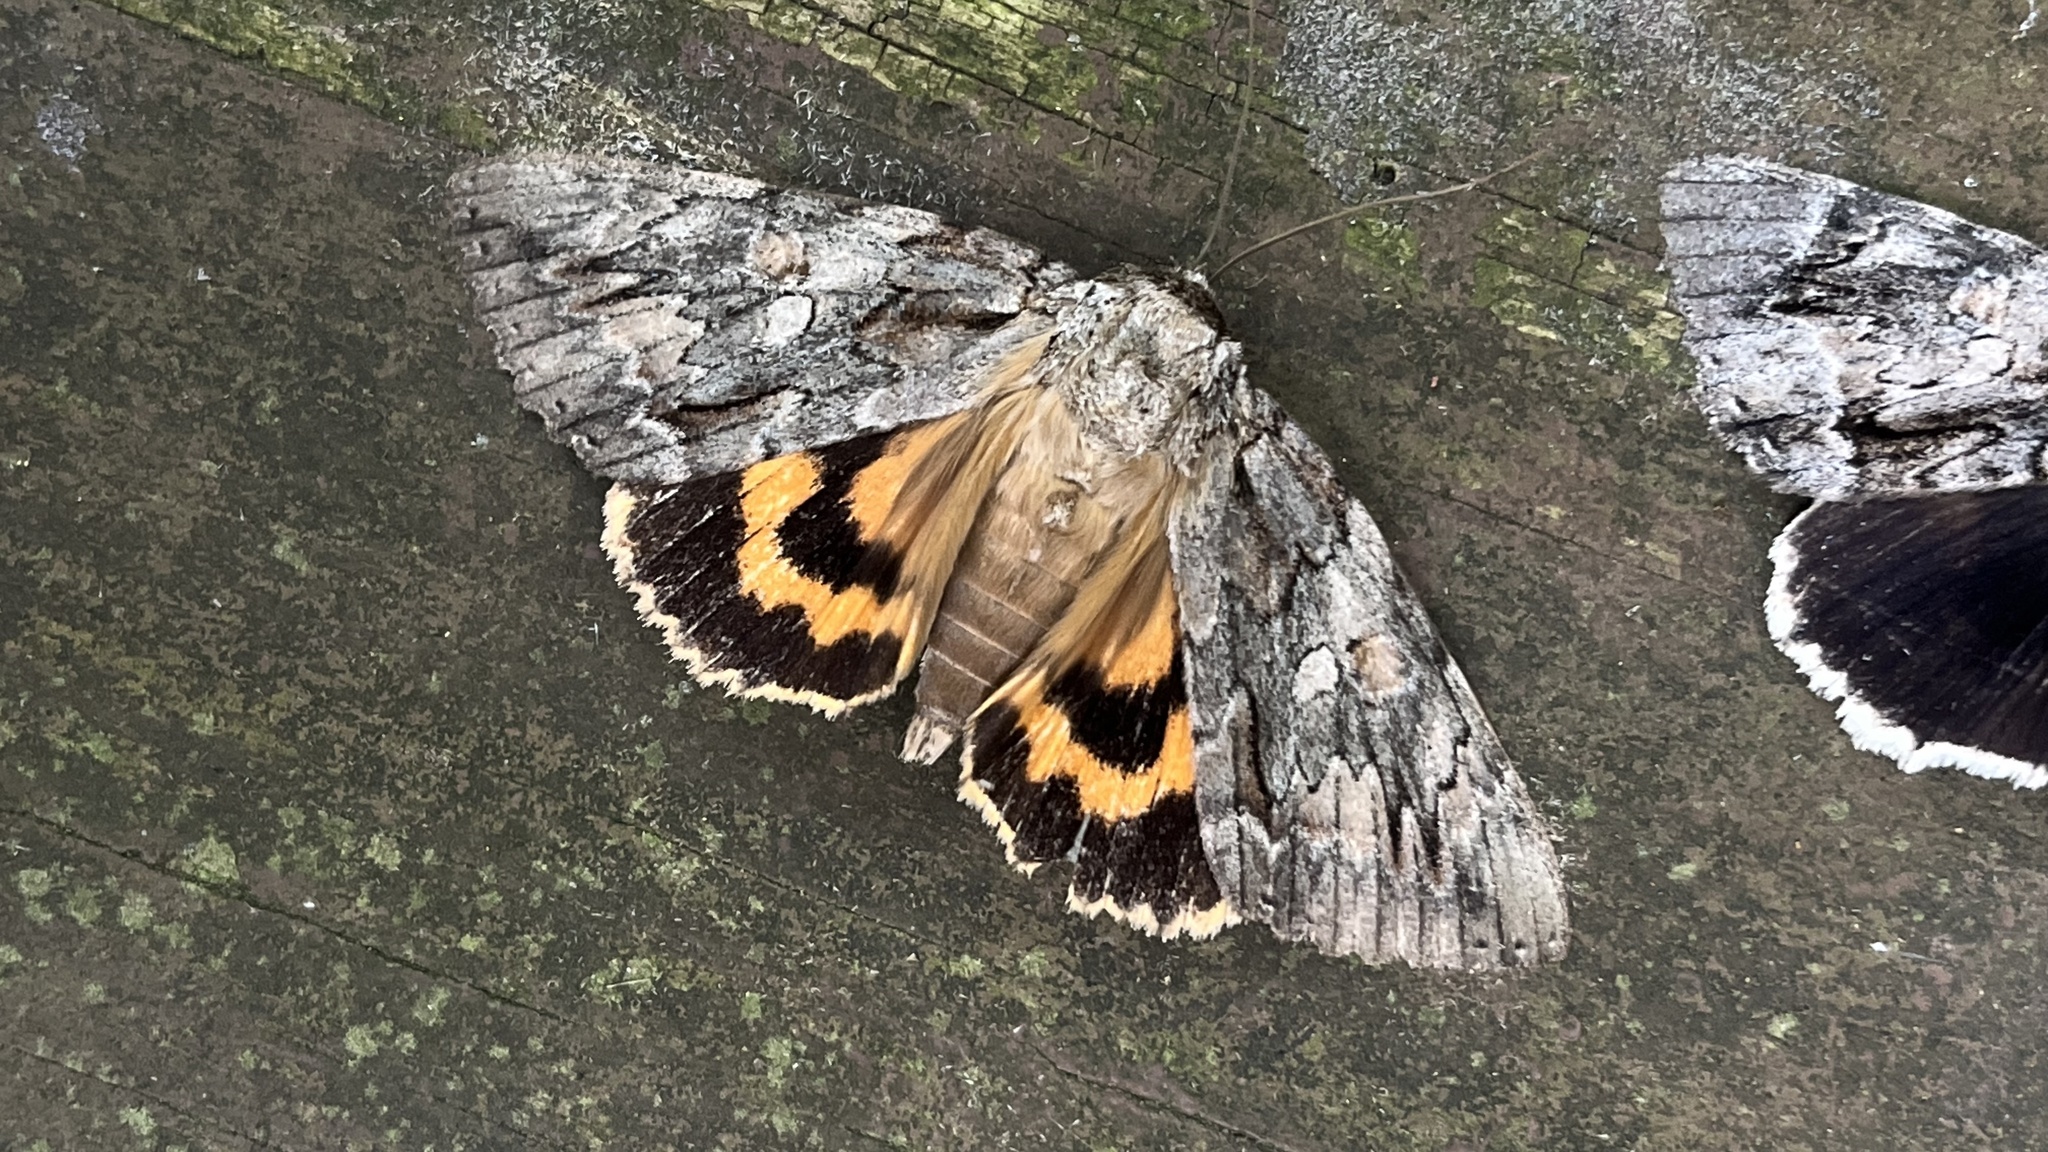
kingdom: Animalia
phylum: Arthropoda
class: Insecta
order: Lepidoptera
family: Erebidae
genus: Catocala
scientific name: Catocala neogama
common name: Bride underwing
